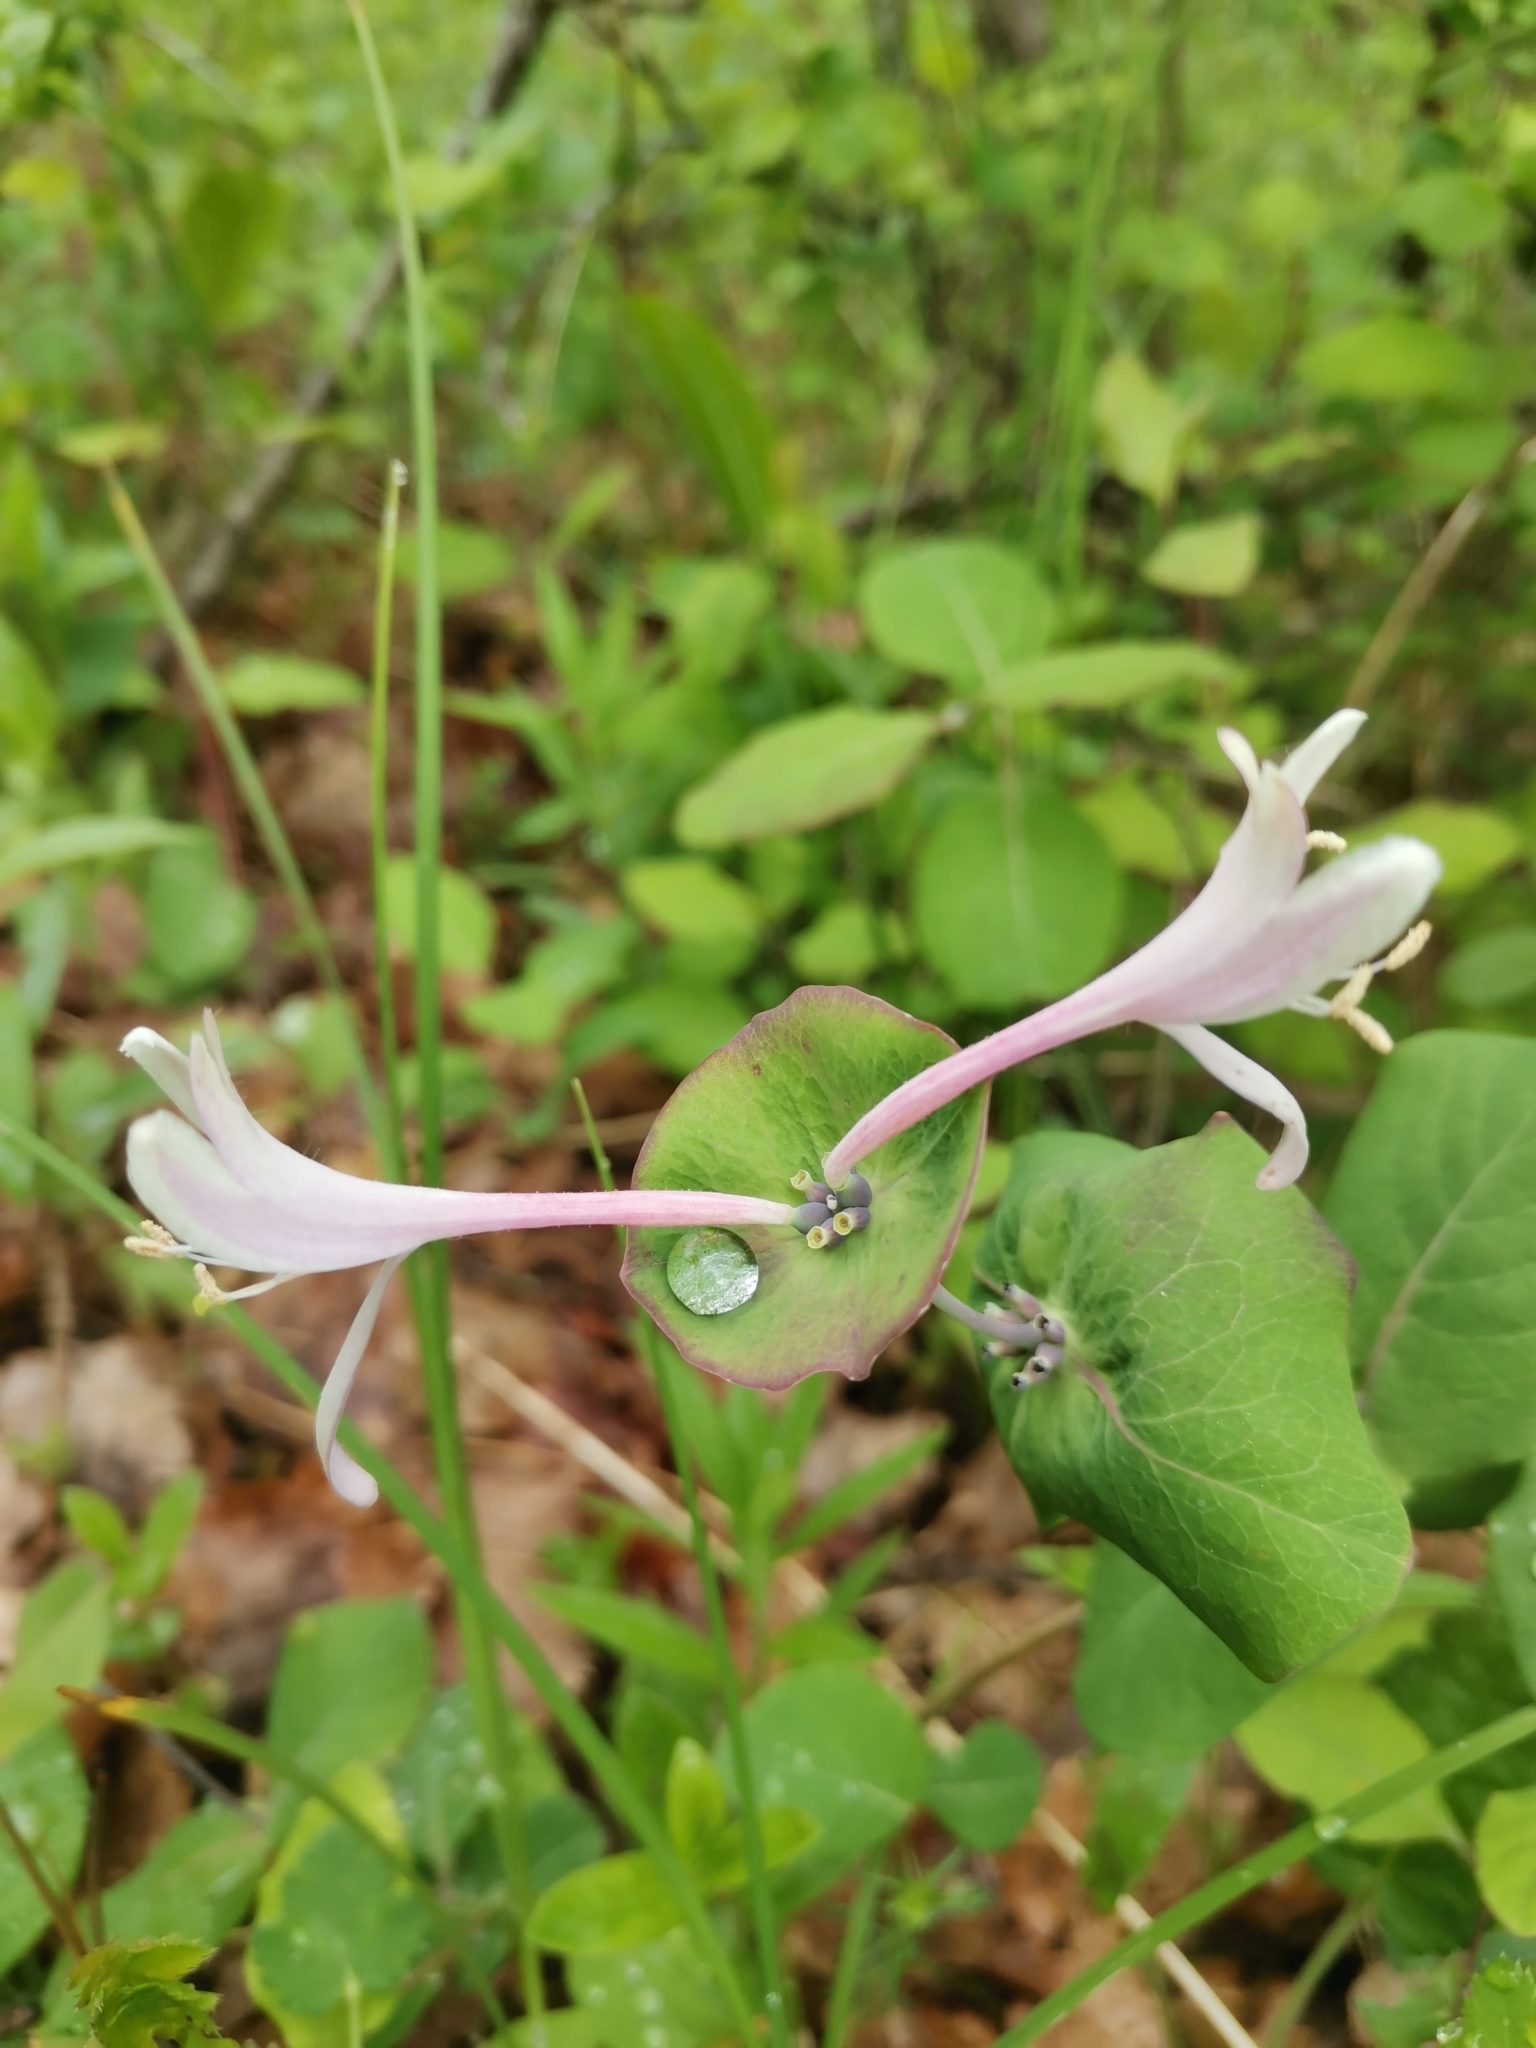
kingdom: Plantae
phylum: Tracheophyta
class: Magnoliopsida
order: Dipsacales
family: Caprifoliaceae
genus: Lonicera
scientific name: Lonicera caprifolium
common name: Perfoliate honeysuckle
